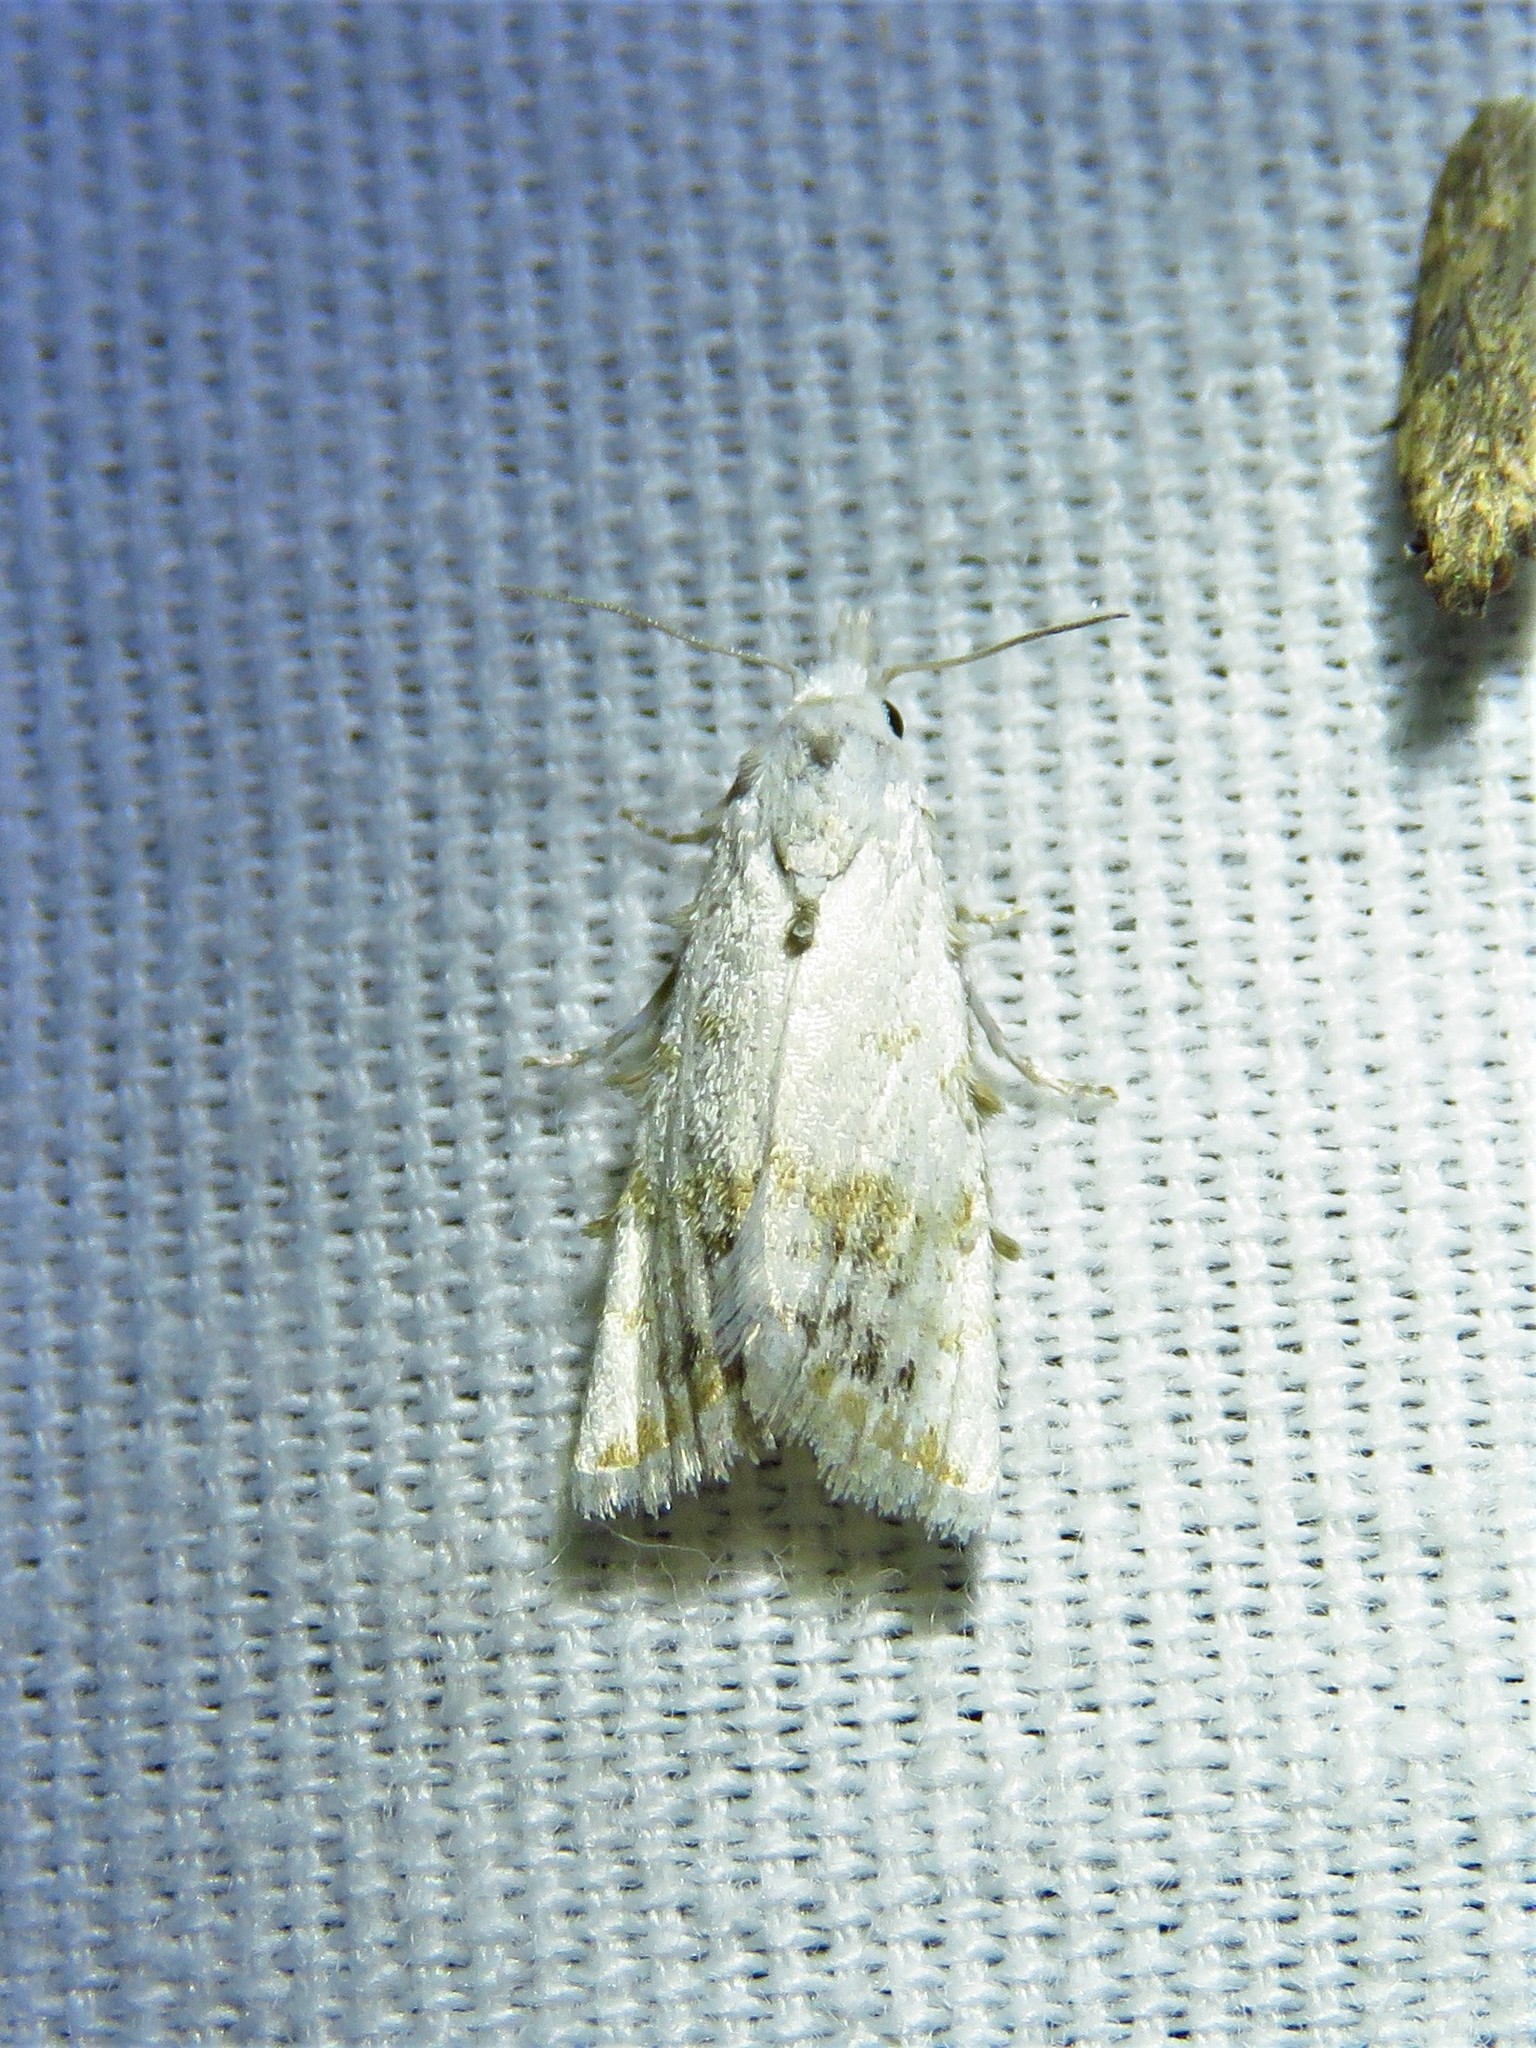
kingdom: Animalia
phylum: Arthropoda
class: Insecta
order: Lepidoptera
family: Nolidae
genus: Nola
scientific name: Nola cereella
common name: Sorghum webworm moth
